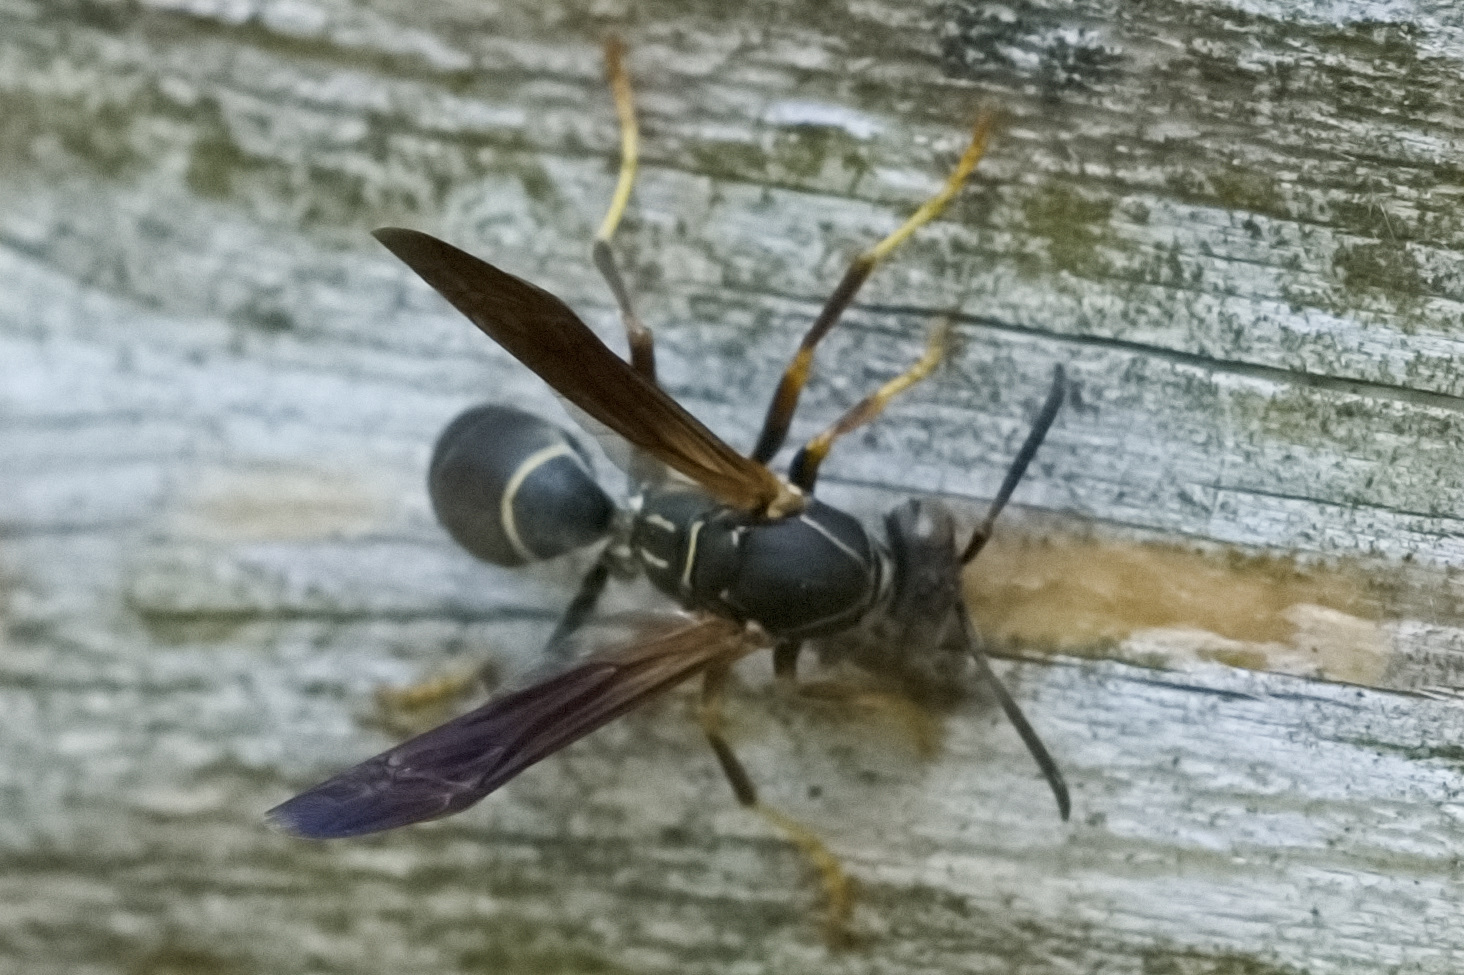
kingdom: Animalia
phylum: Arthropoda
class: Insecta
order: Hymenoptera
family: Eumenidae
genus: Polistes
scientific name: Polistes fuscatus
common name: Dark paper wasp
